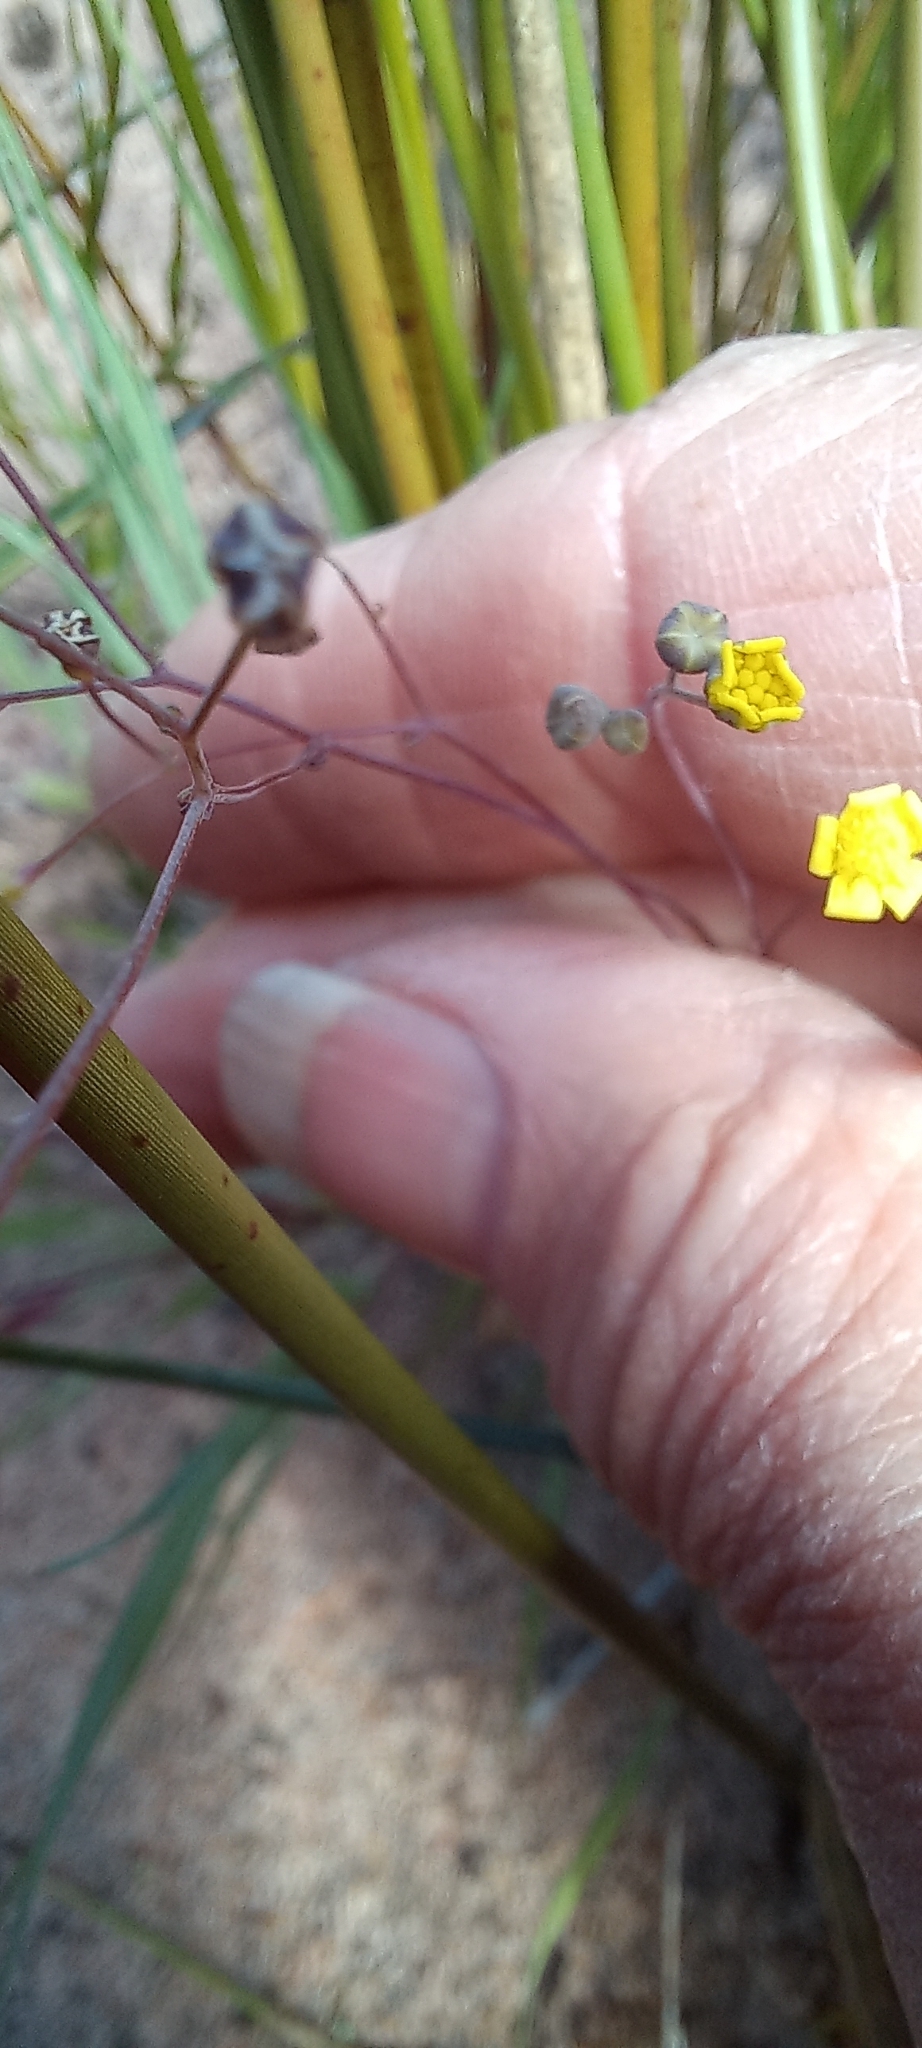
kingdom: Plantae
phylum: Tracheophyta
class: Magnoliopsida
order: Asterales
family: Asteraceae
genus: Gymnodiscus
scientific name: Gymnodiscus capillaris
